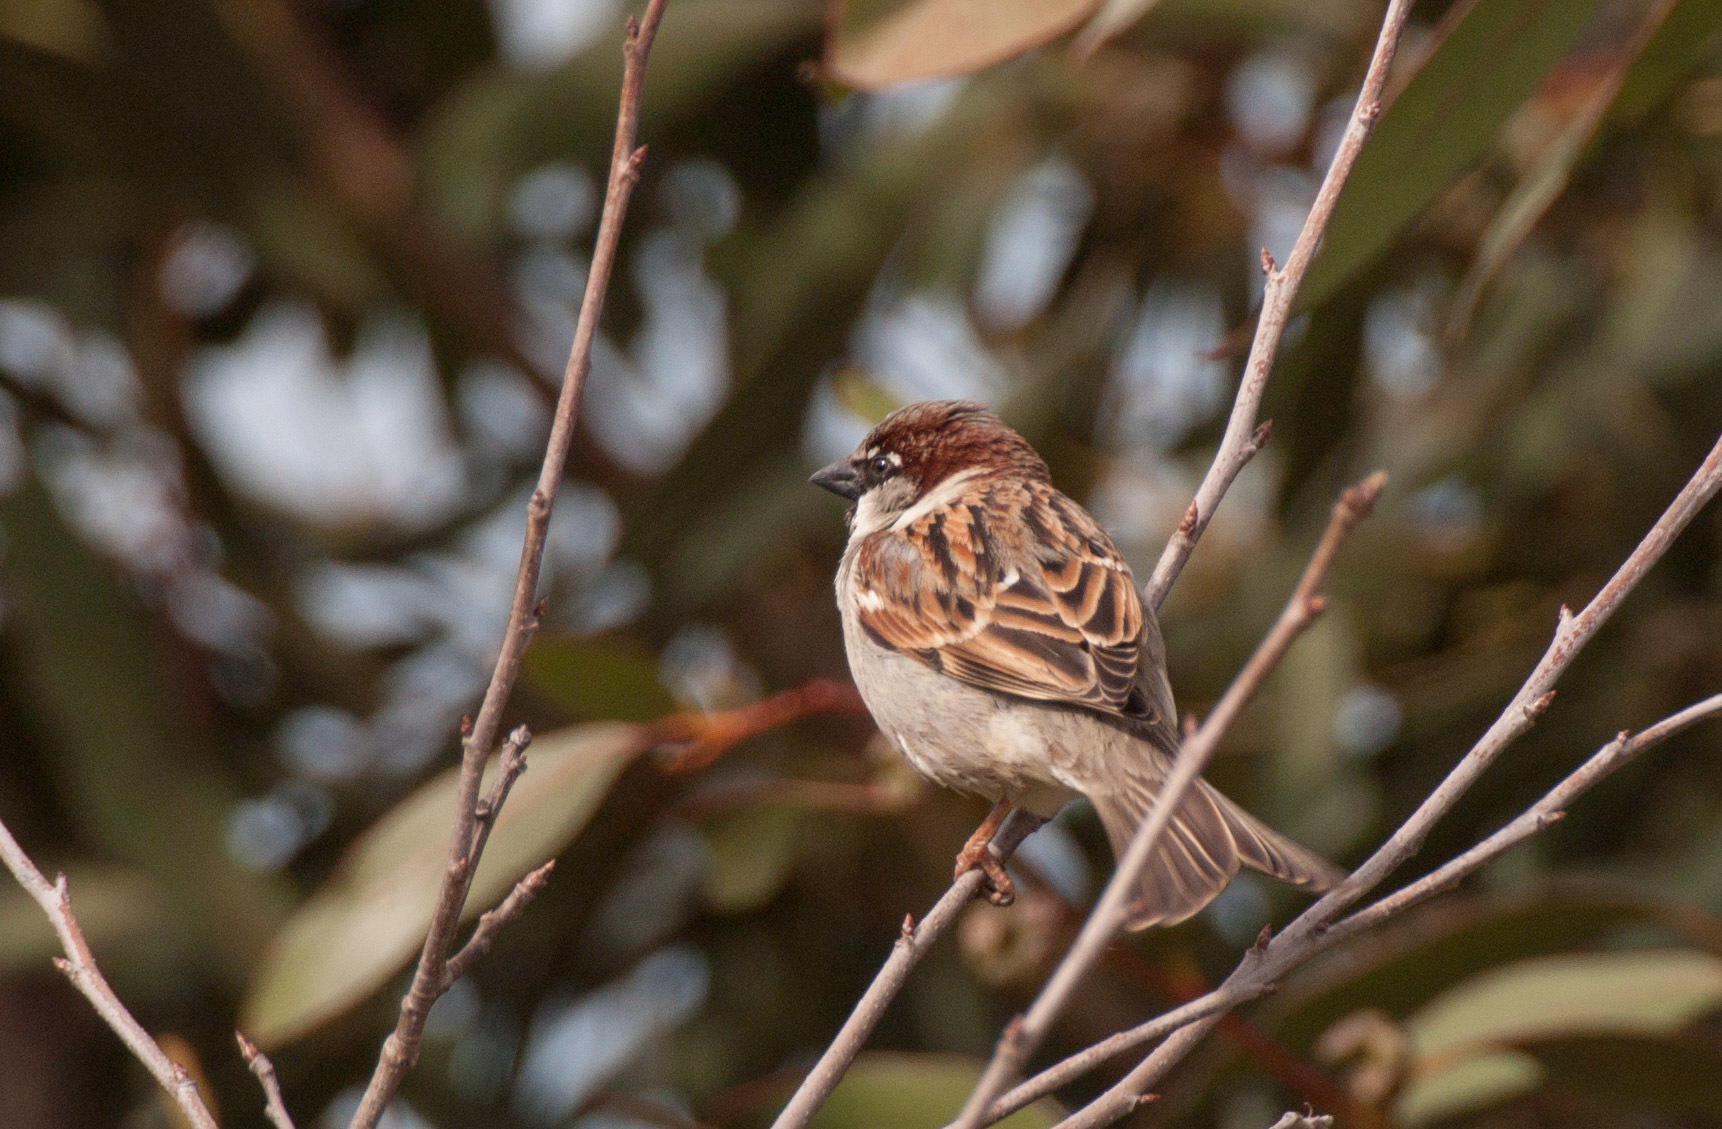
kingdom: Animalia
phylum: Chordata
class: Aves
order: Passeriformes
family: Passeridae
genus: Passer
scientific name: Passer domesticus
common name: House sparrow
